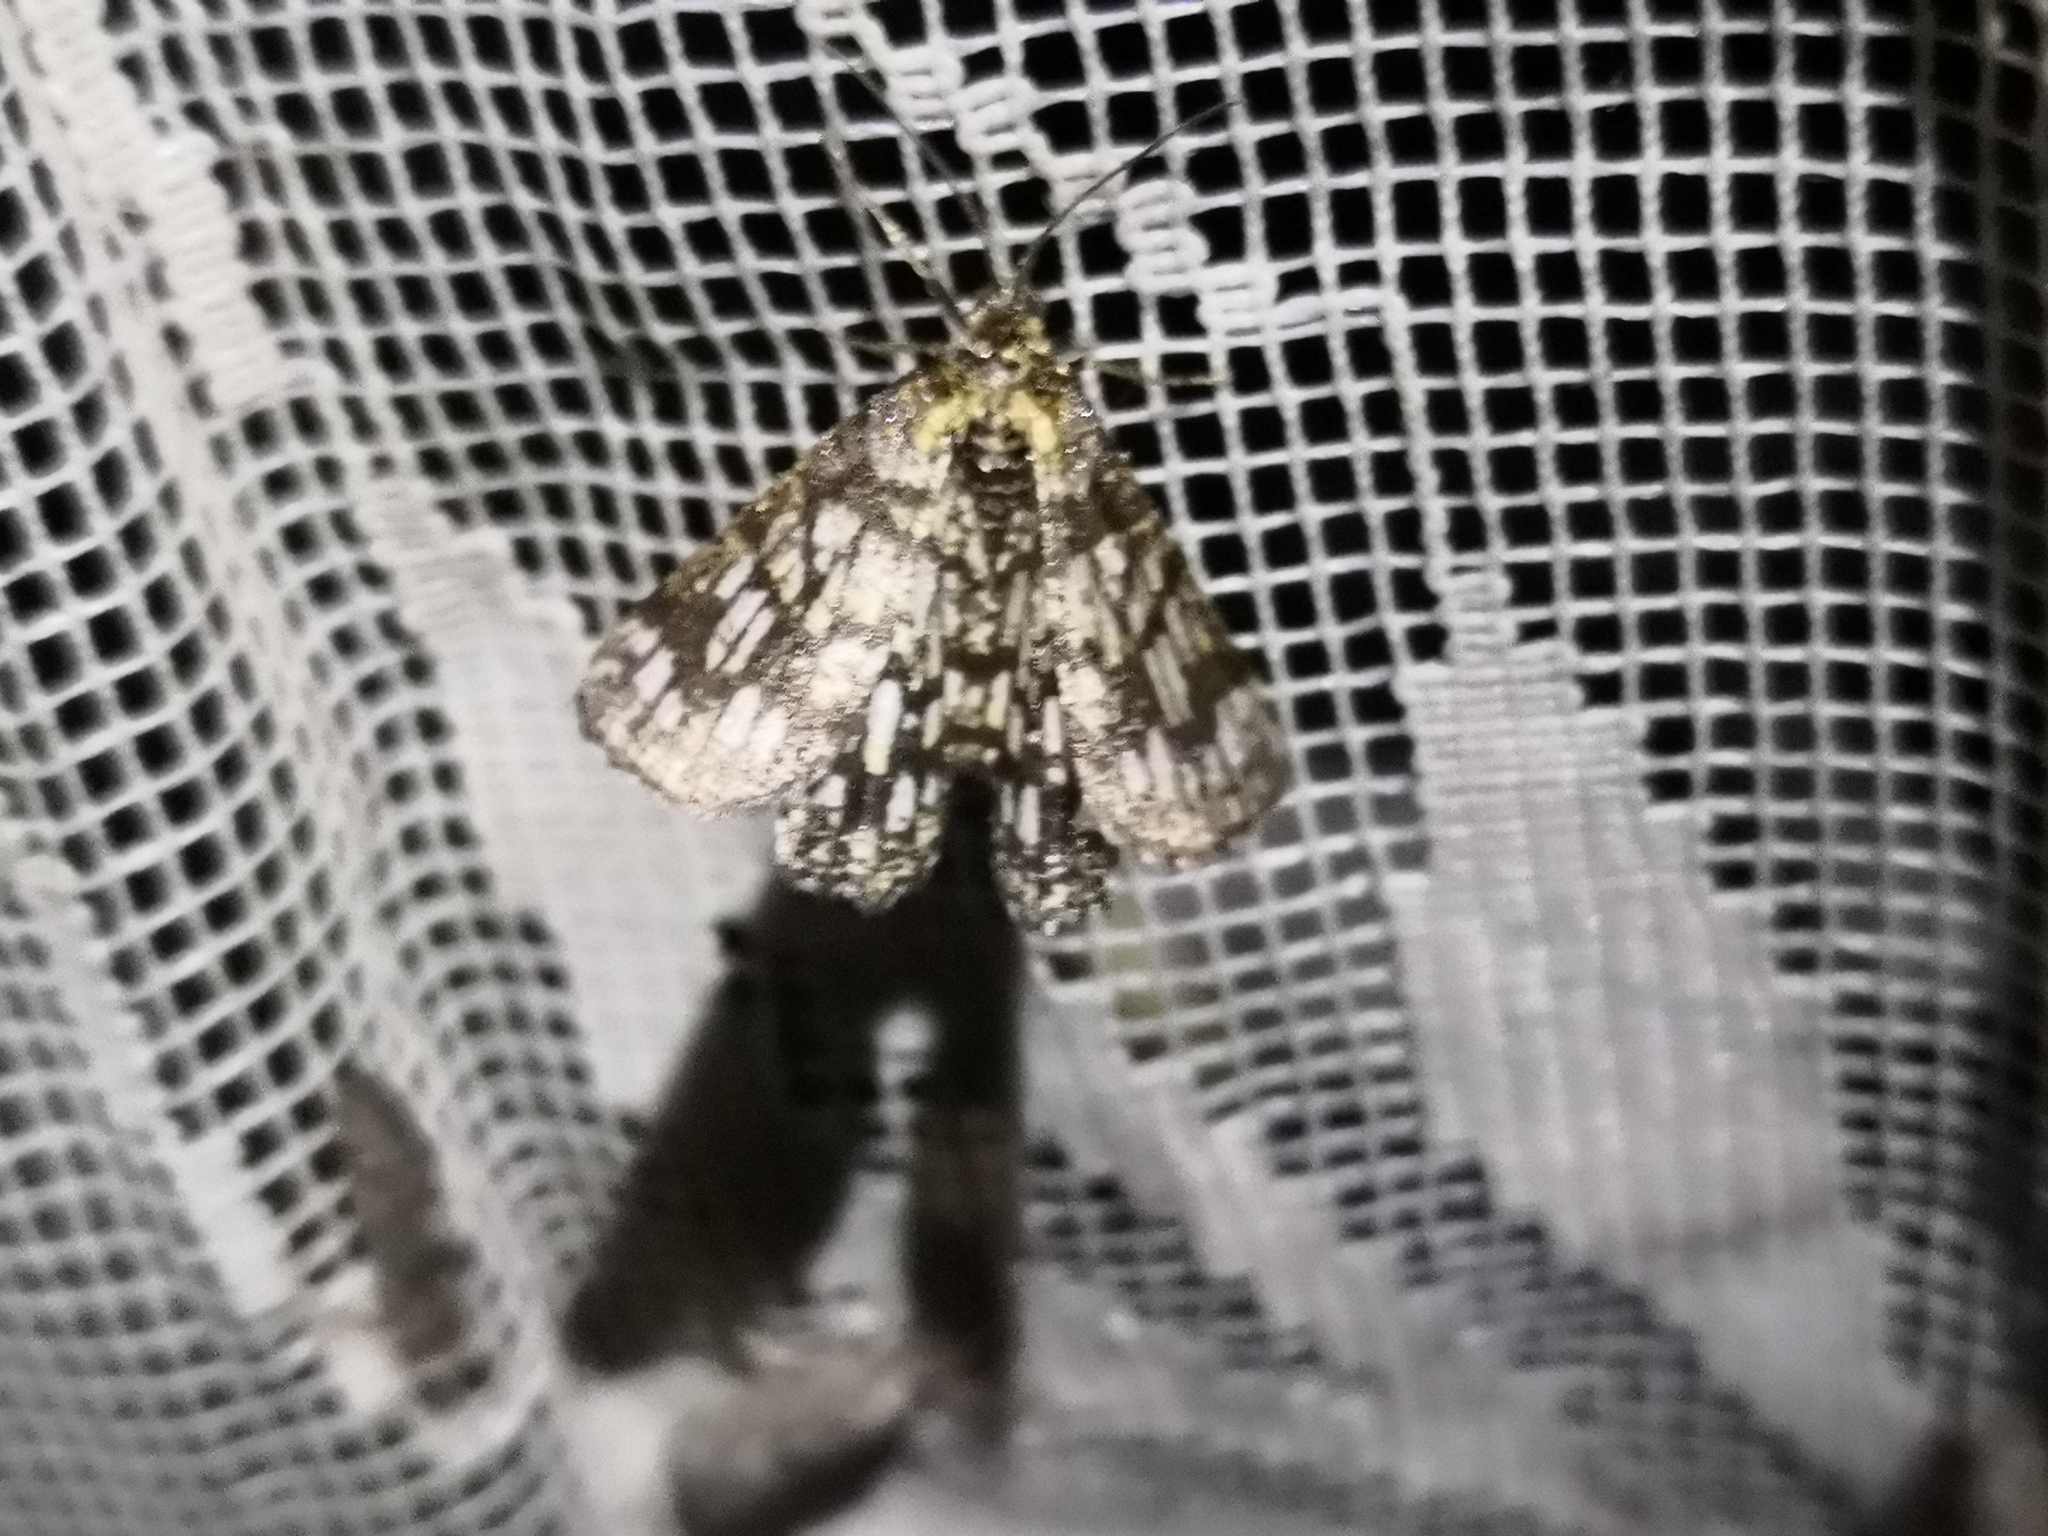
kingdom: Animalia
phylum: Arthropoda
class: Insecta
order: Lepidoptera
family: Geometridae
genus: Chiasmia
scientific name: Chiasmia clathrata
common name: Latticed heath
